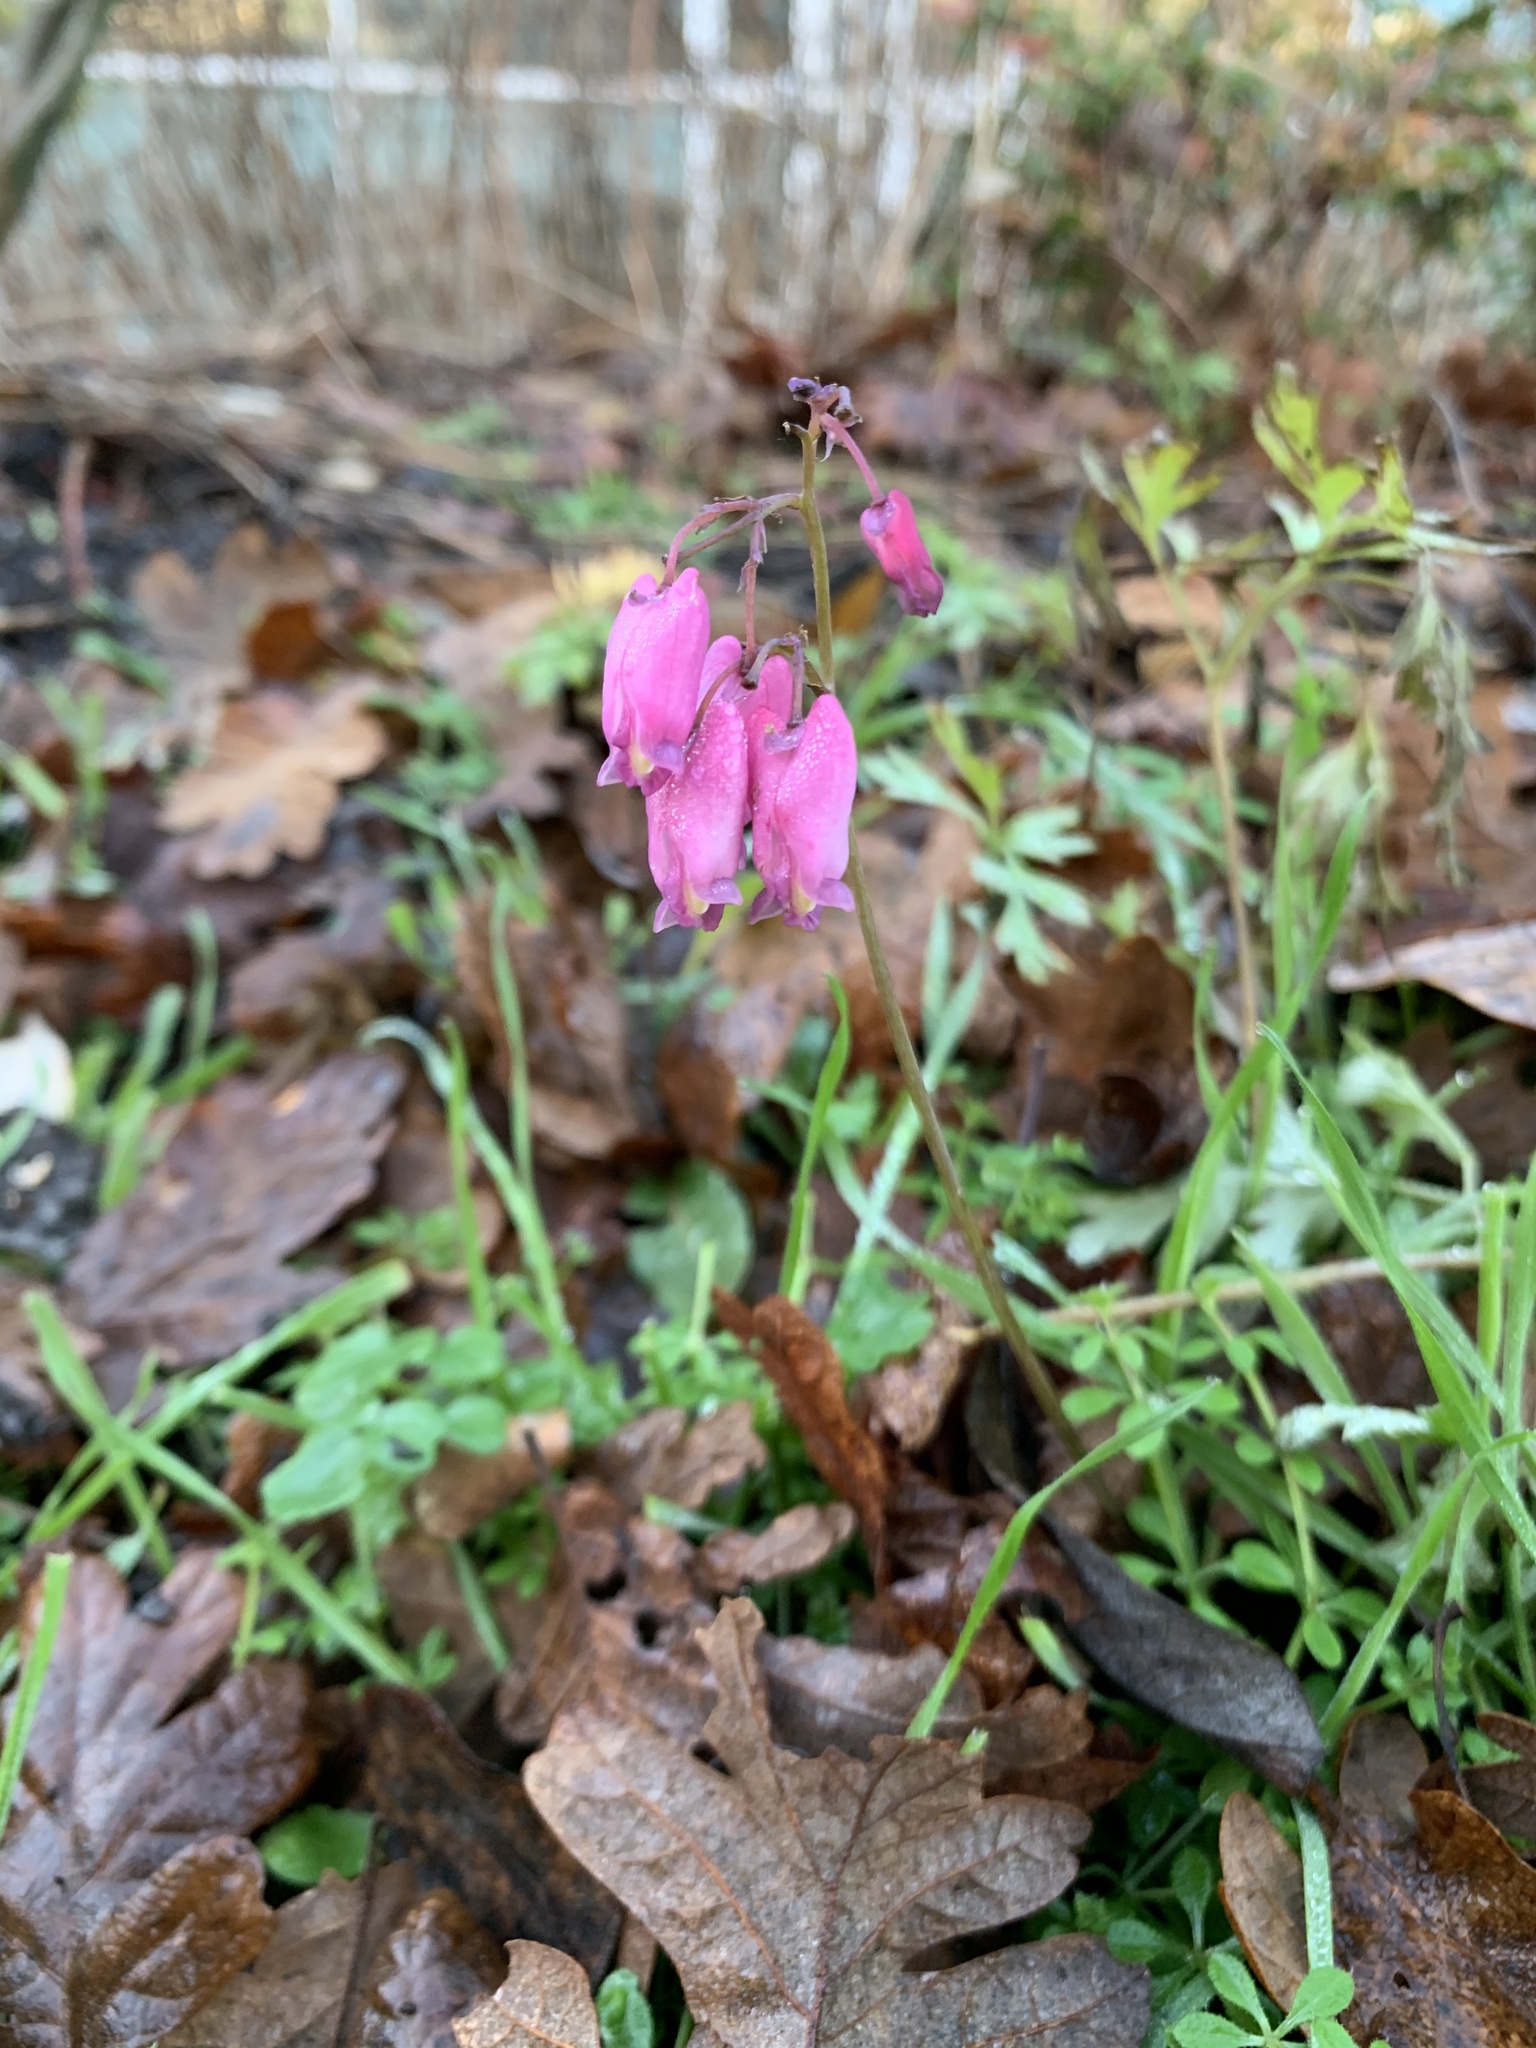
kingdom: Plantae
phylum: Tracheophyta
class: Magnoliopsida
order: Ranunculales
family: Papaveraceae
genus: Dicentra
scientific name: Dicentra formosa
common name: Bleeding-heart
